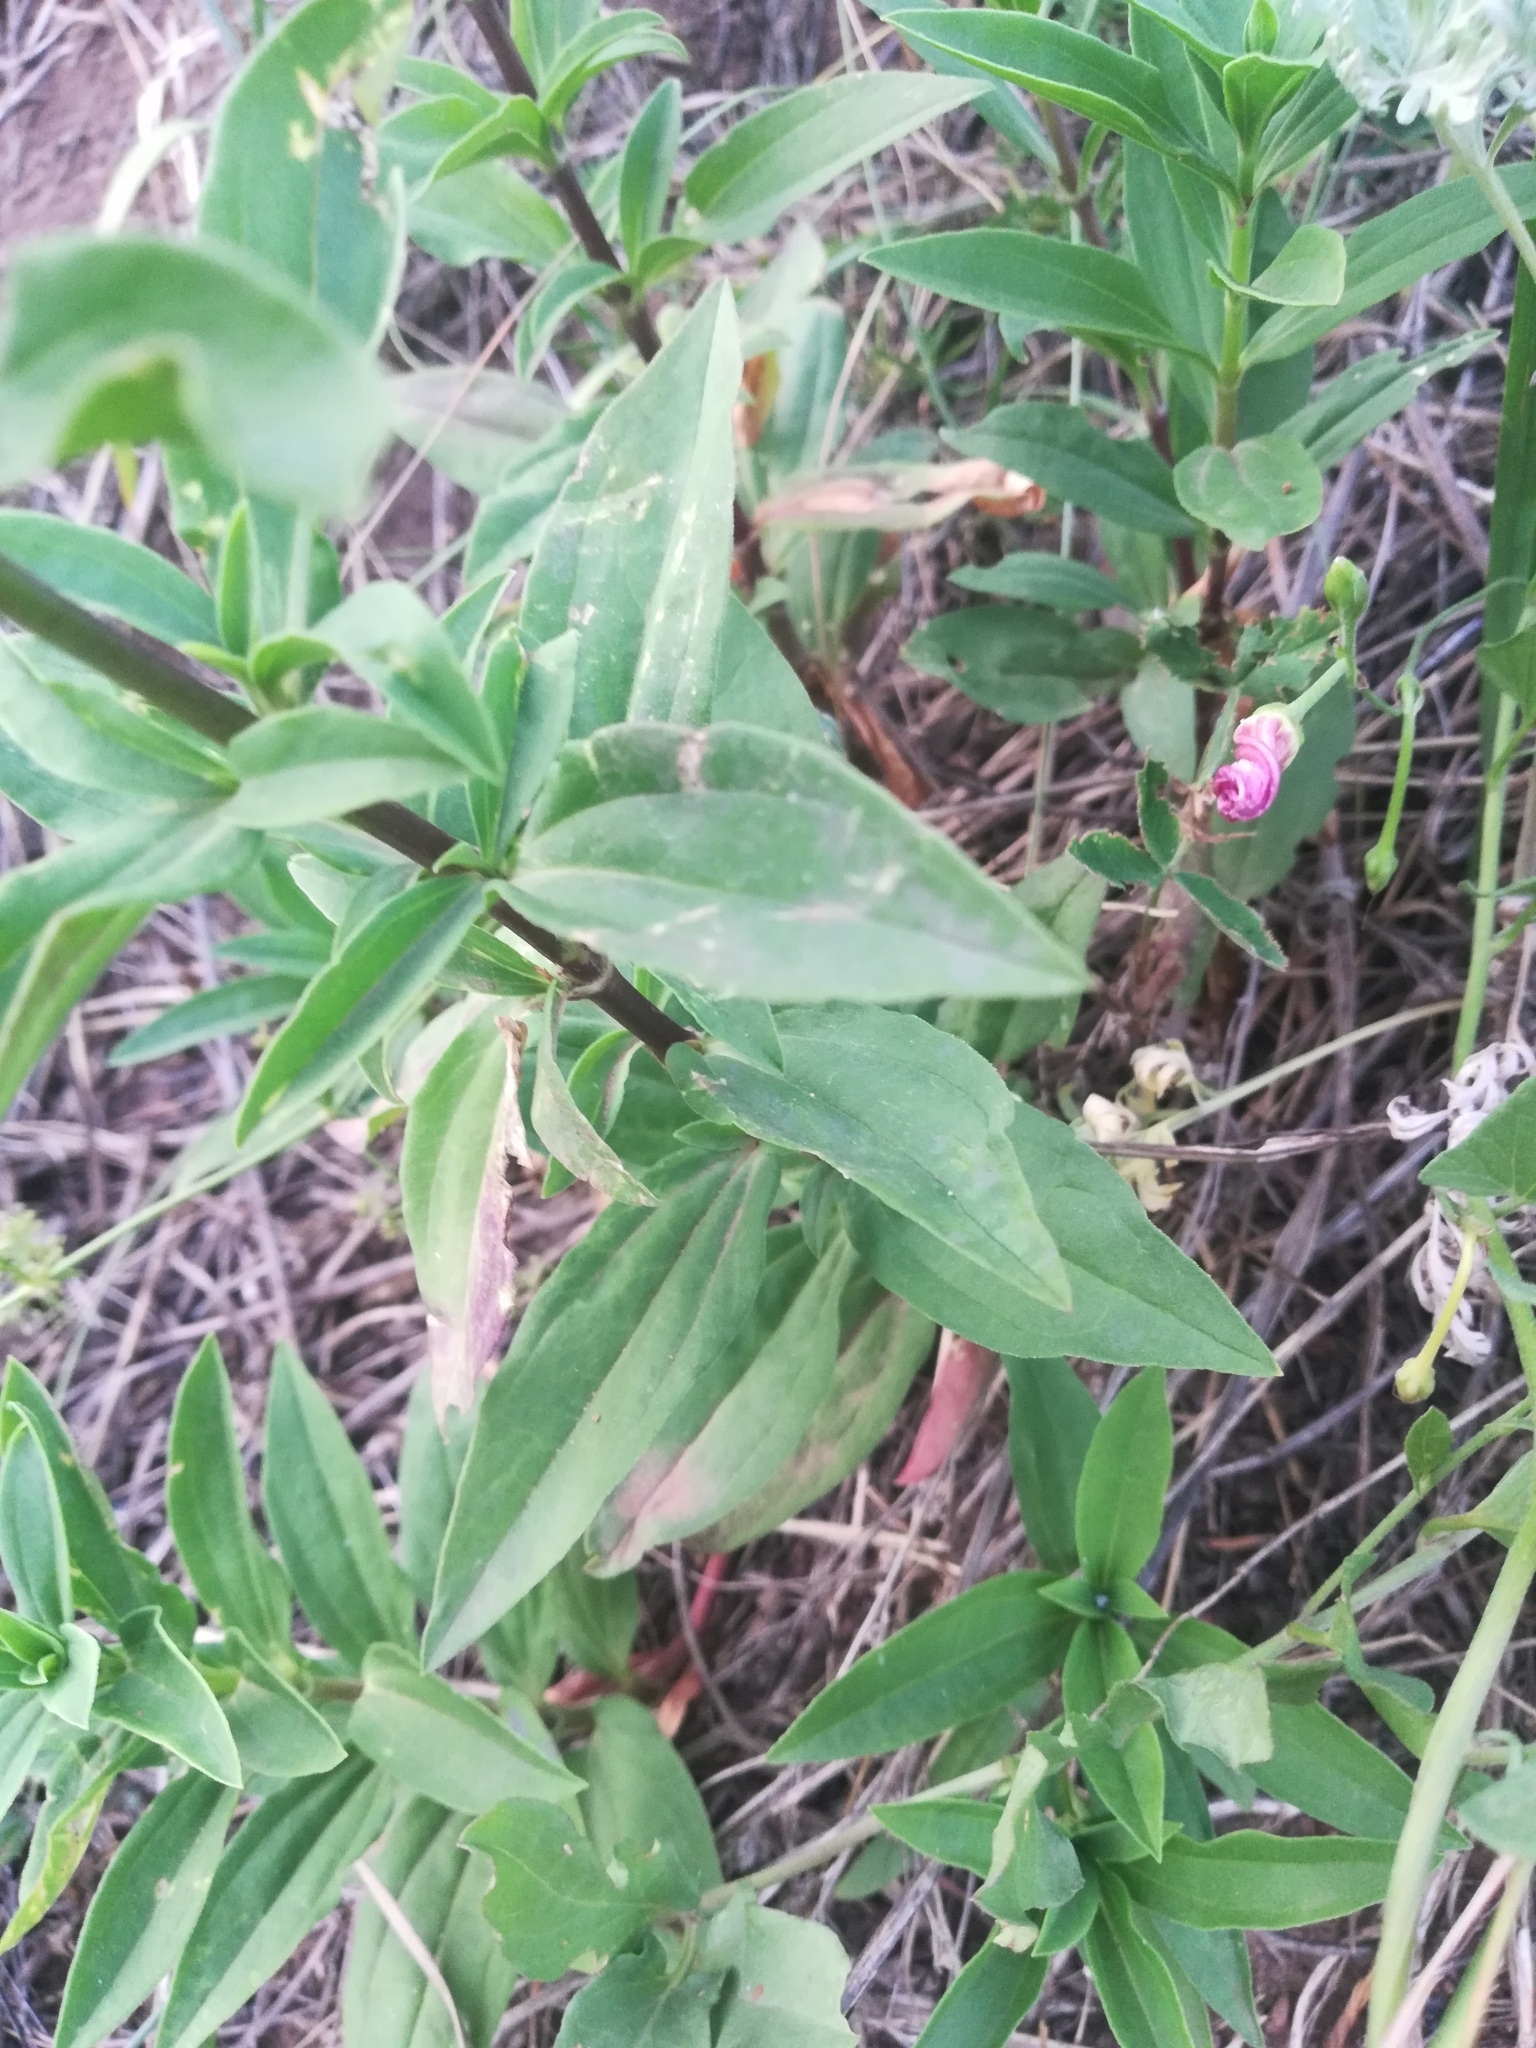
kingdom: Plantae
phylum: Tracheophyta
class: Magnoliopsida
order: Caryophyllales
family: Caryophyllaceae
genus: Saponaria
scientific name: Saponaria officinalis
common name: Soapwort
